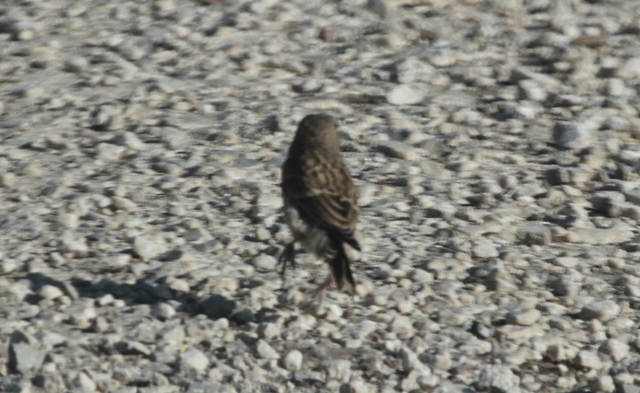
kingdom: Animalia
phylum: Chordata
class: Aves
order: Passeriformes
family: Fringillidae
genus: Linaria
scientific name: Linaria cannabina
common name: Common linnet
